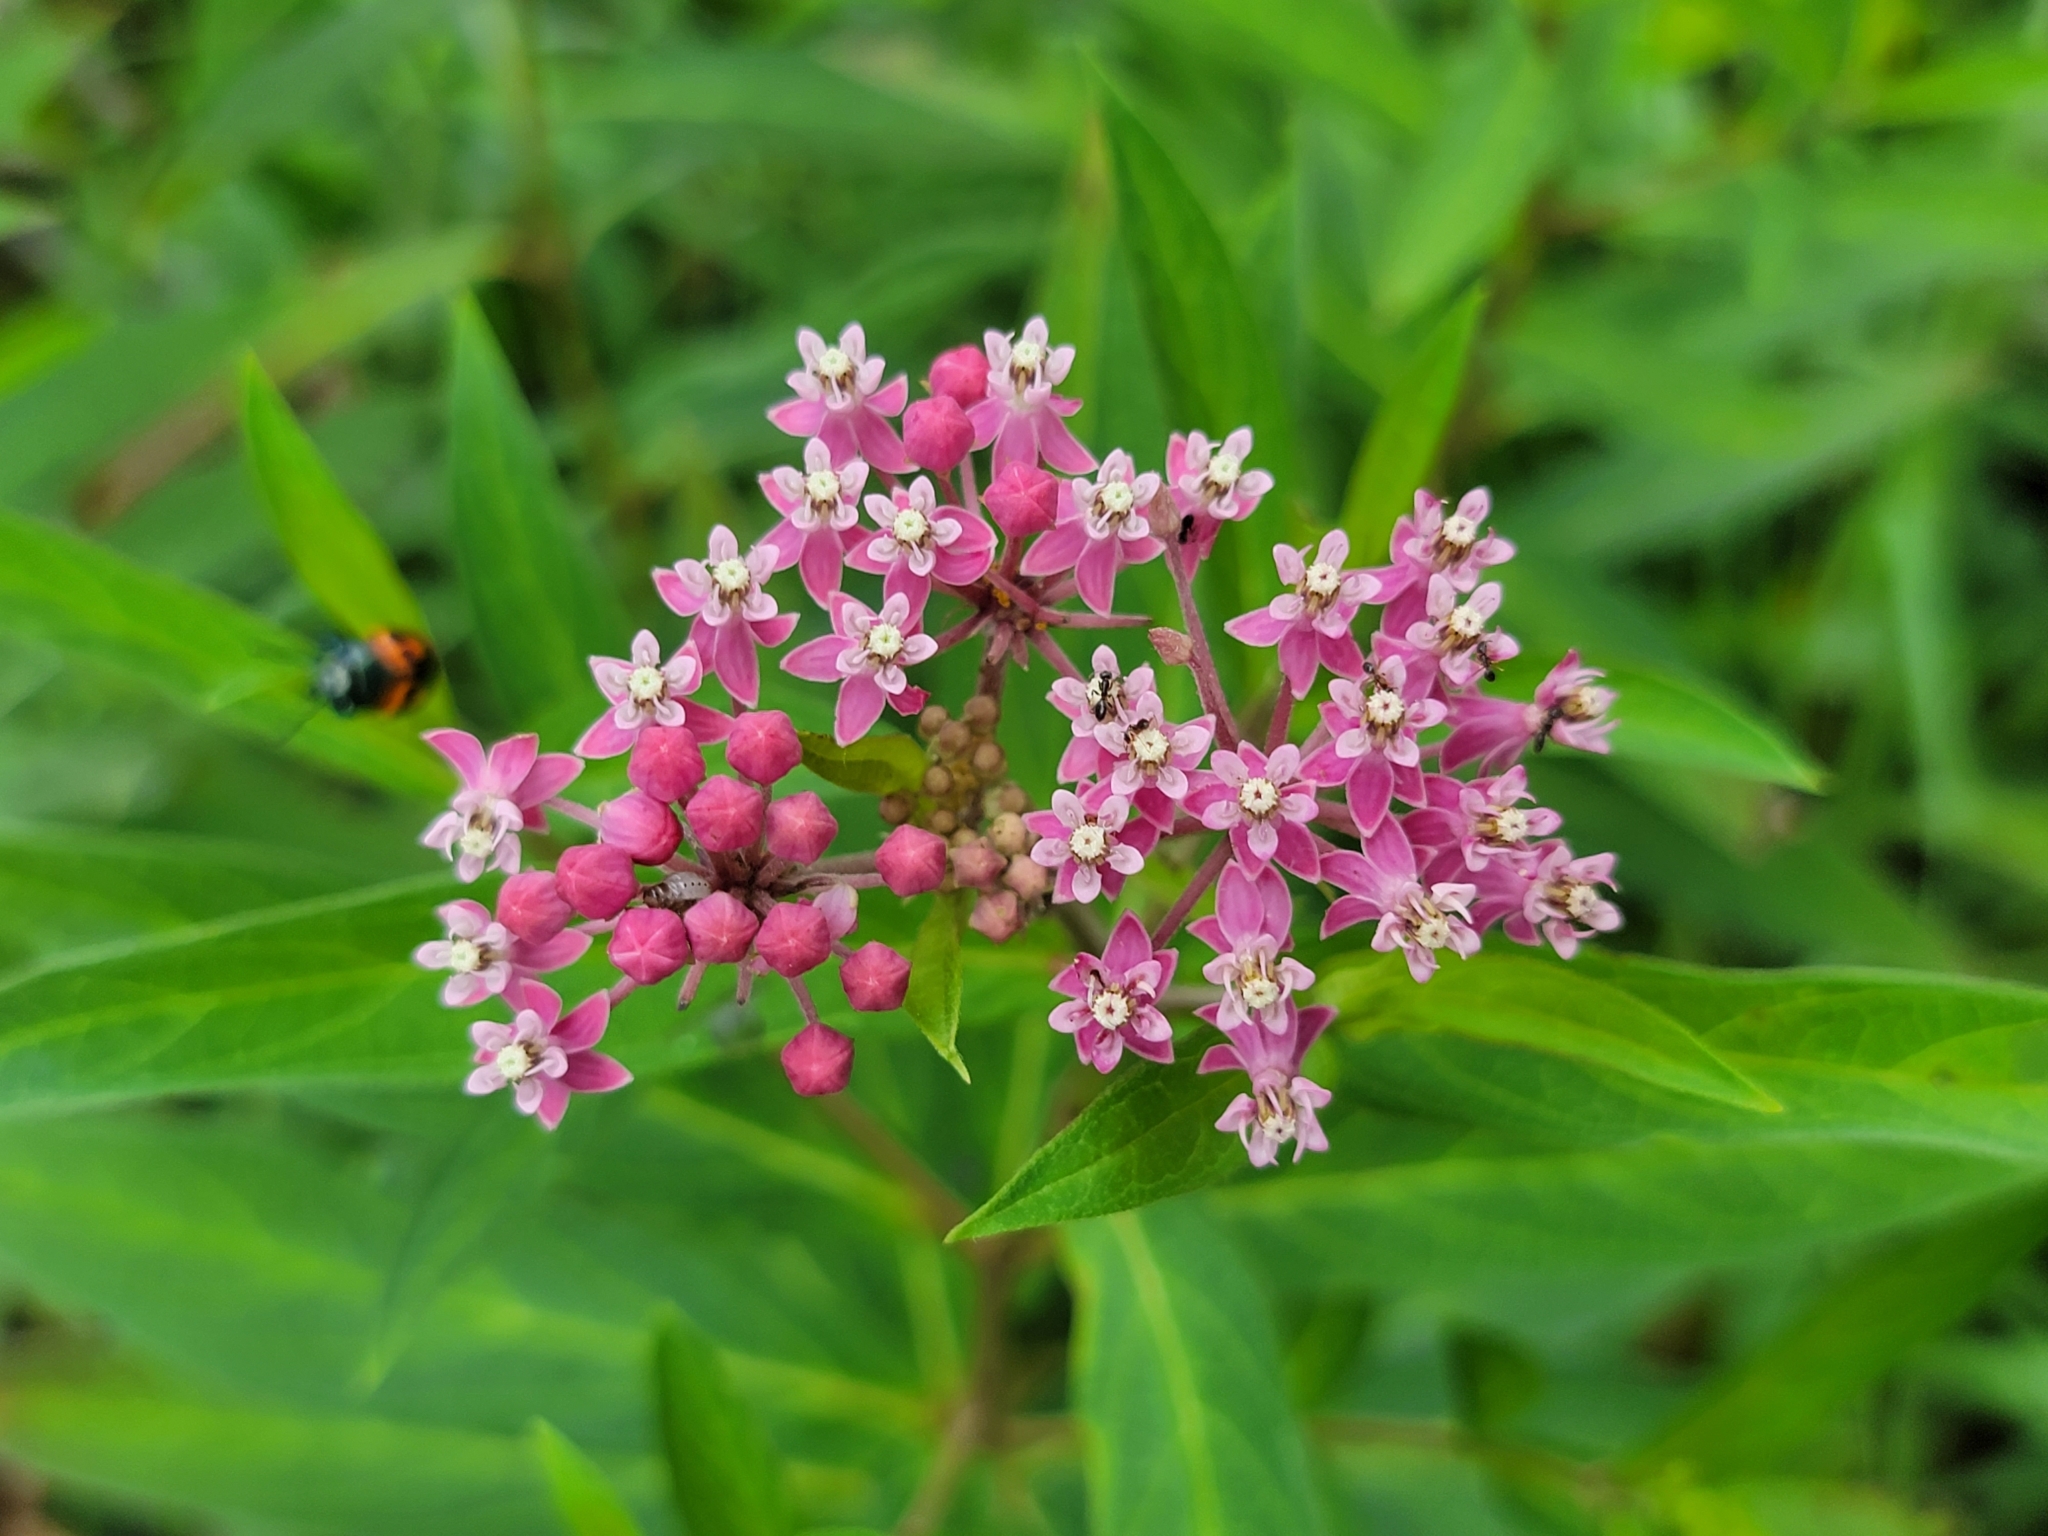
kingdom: Plantae
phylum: Tracheophyta
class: Magnoliopsida
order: Gentianales
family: Apocynaceae
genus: Asclepias
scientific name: Asclepias incarnata
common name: Swamp milkweed
